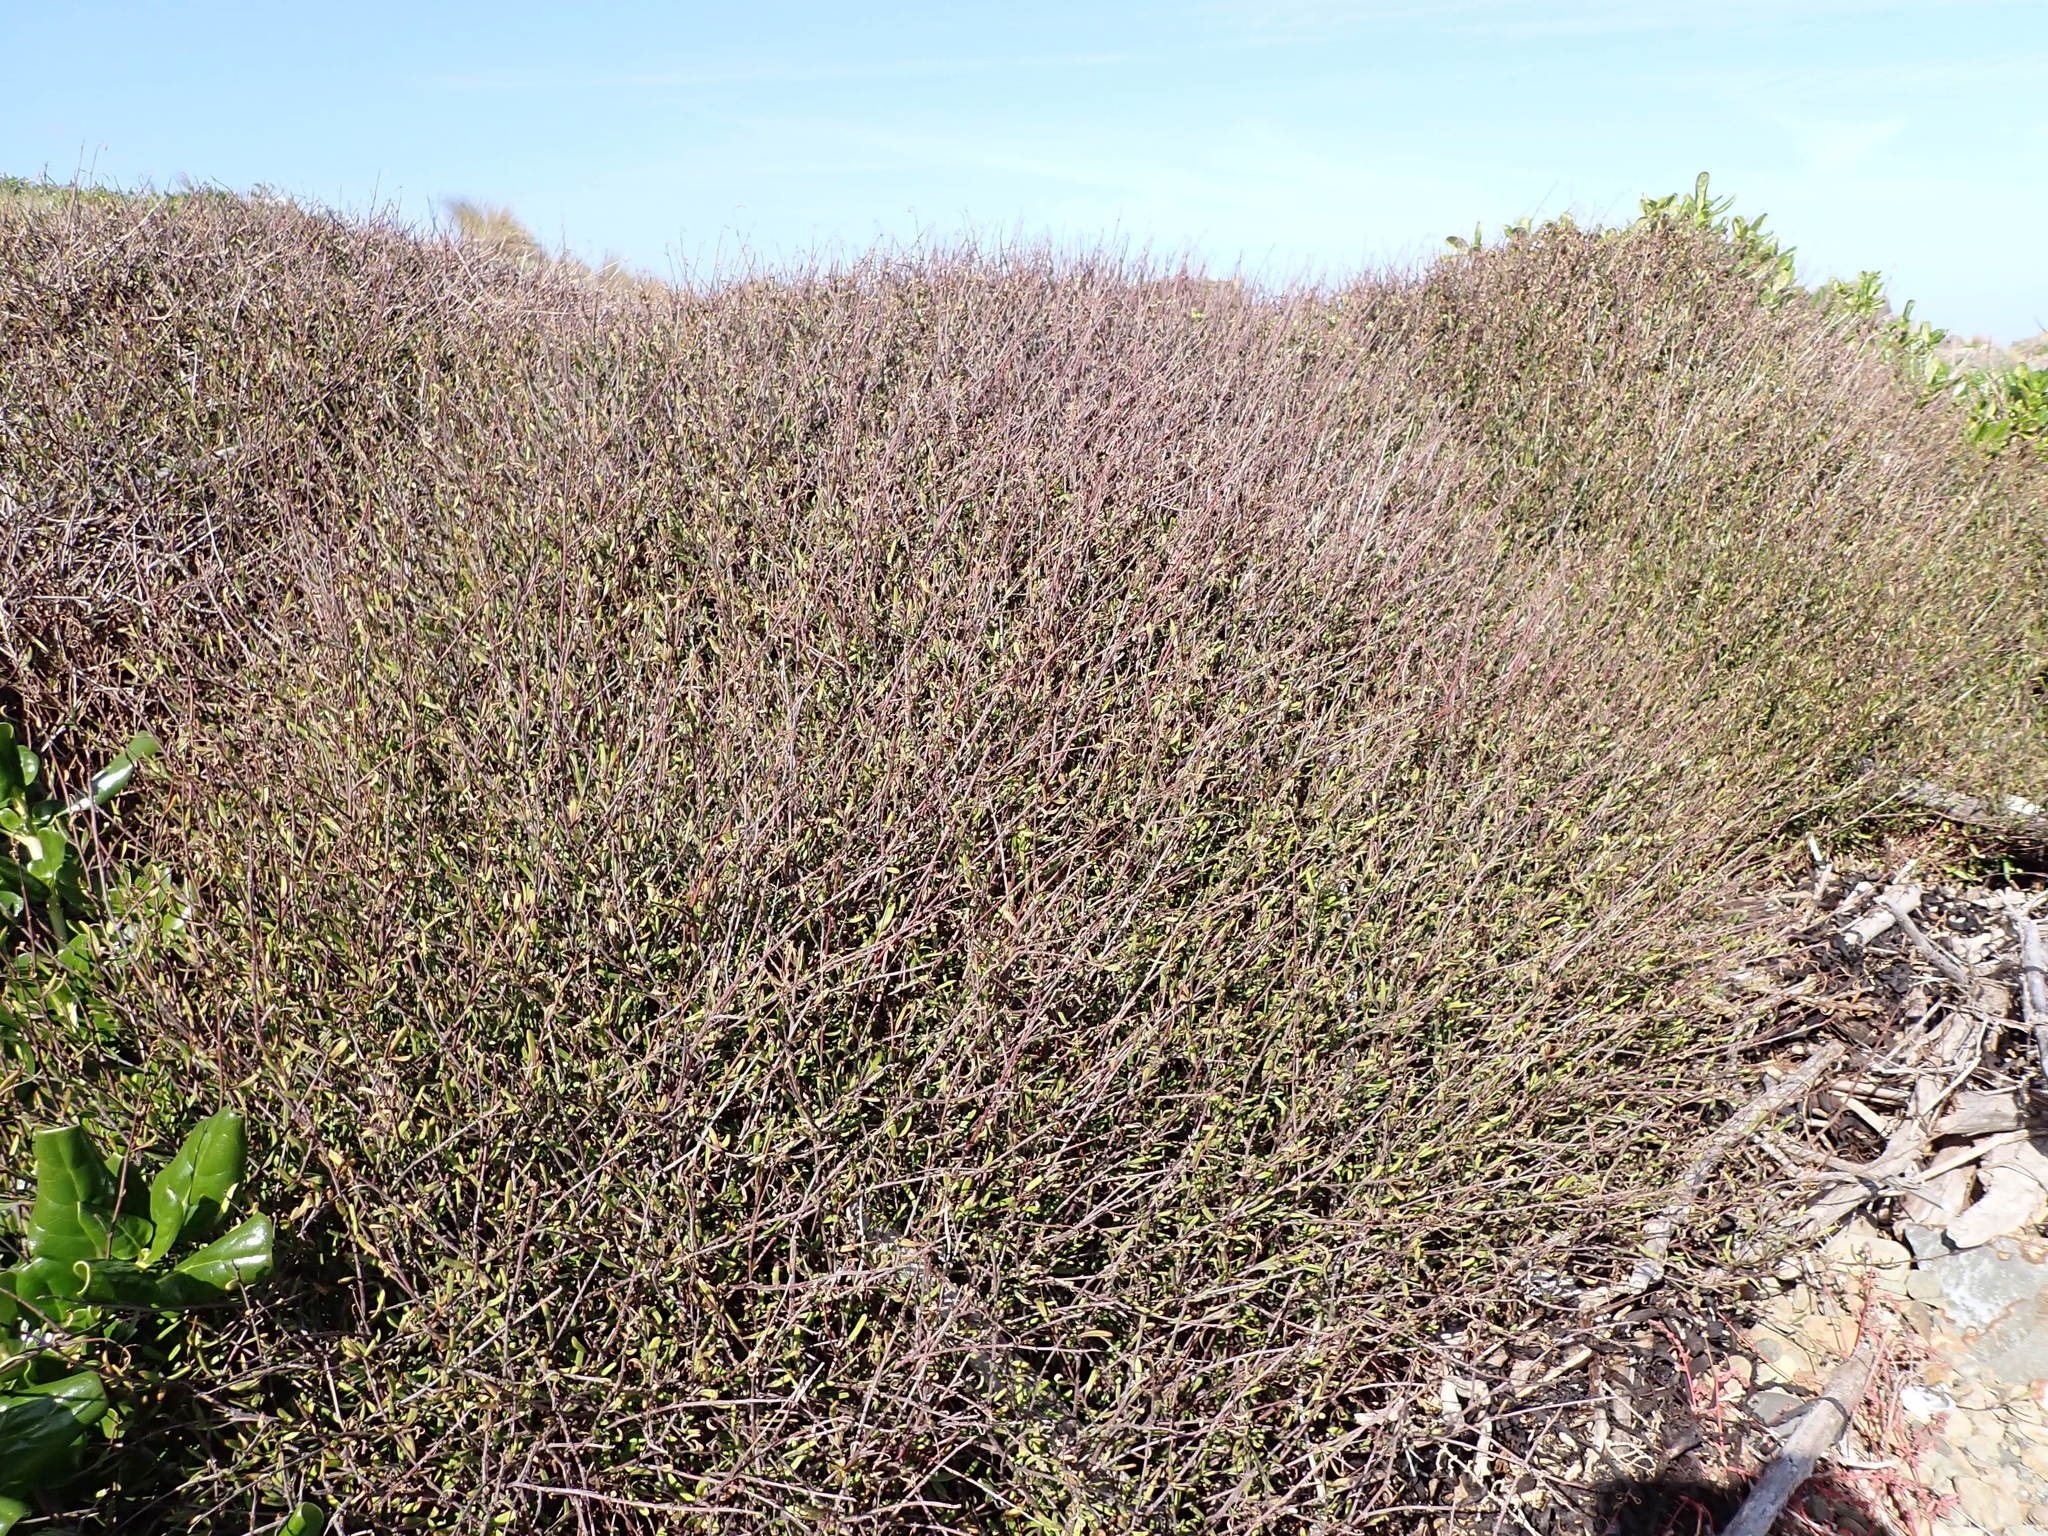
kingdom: Plantae
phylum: Tracheophyta
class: Magnoliopsida
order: Malvales
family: Malvaceae
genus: Plagianthus
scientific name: Plagianthus divaricatus
